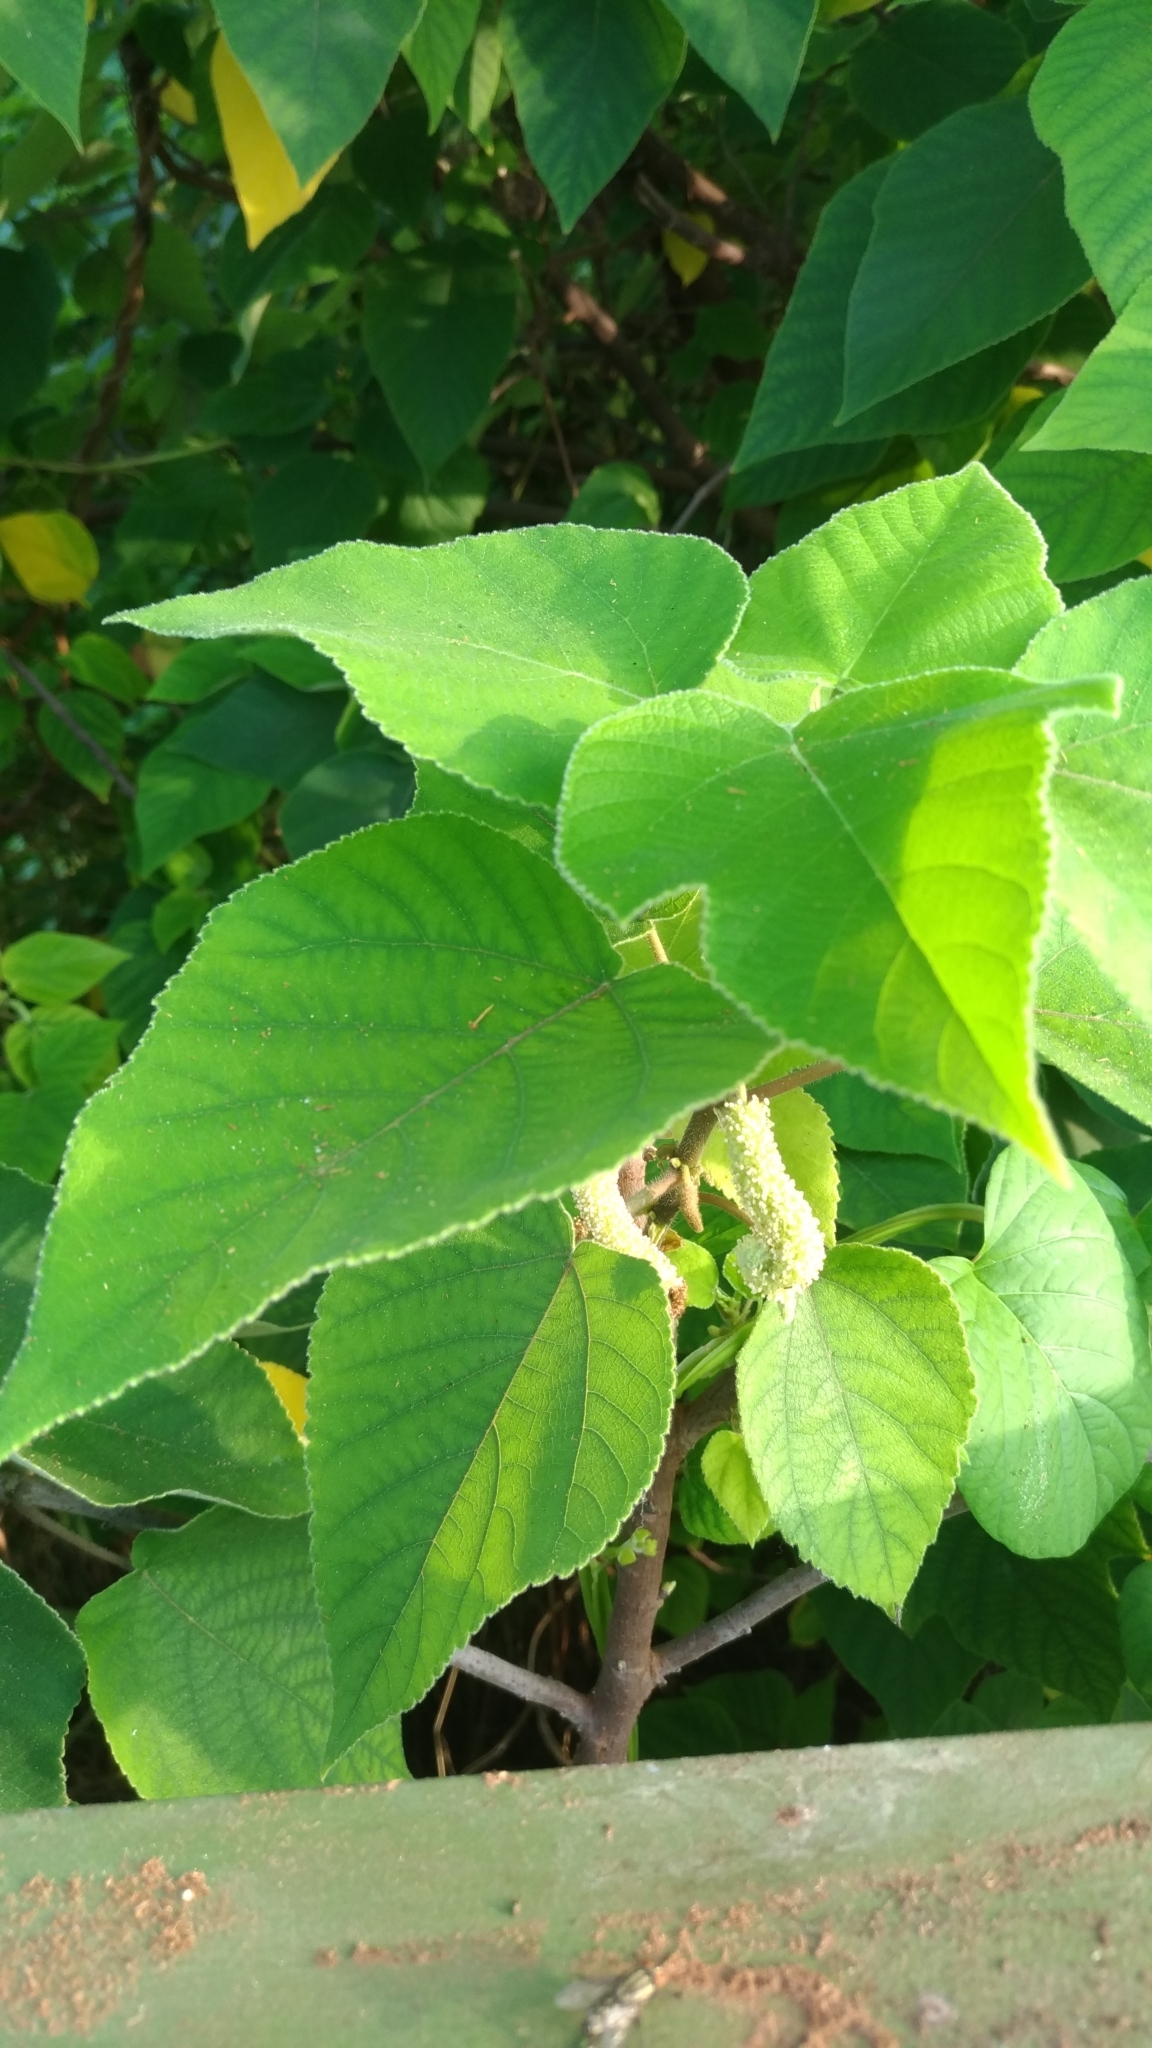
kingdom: Plantae
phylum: Tracheophyta
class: Magnoliopsida
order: Rosales
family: Moraceae
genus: Broussonetia
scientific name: Broussonetia papyrifera
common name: Paper mulberry
